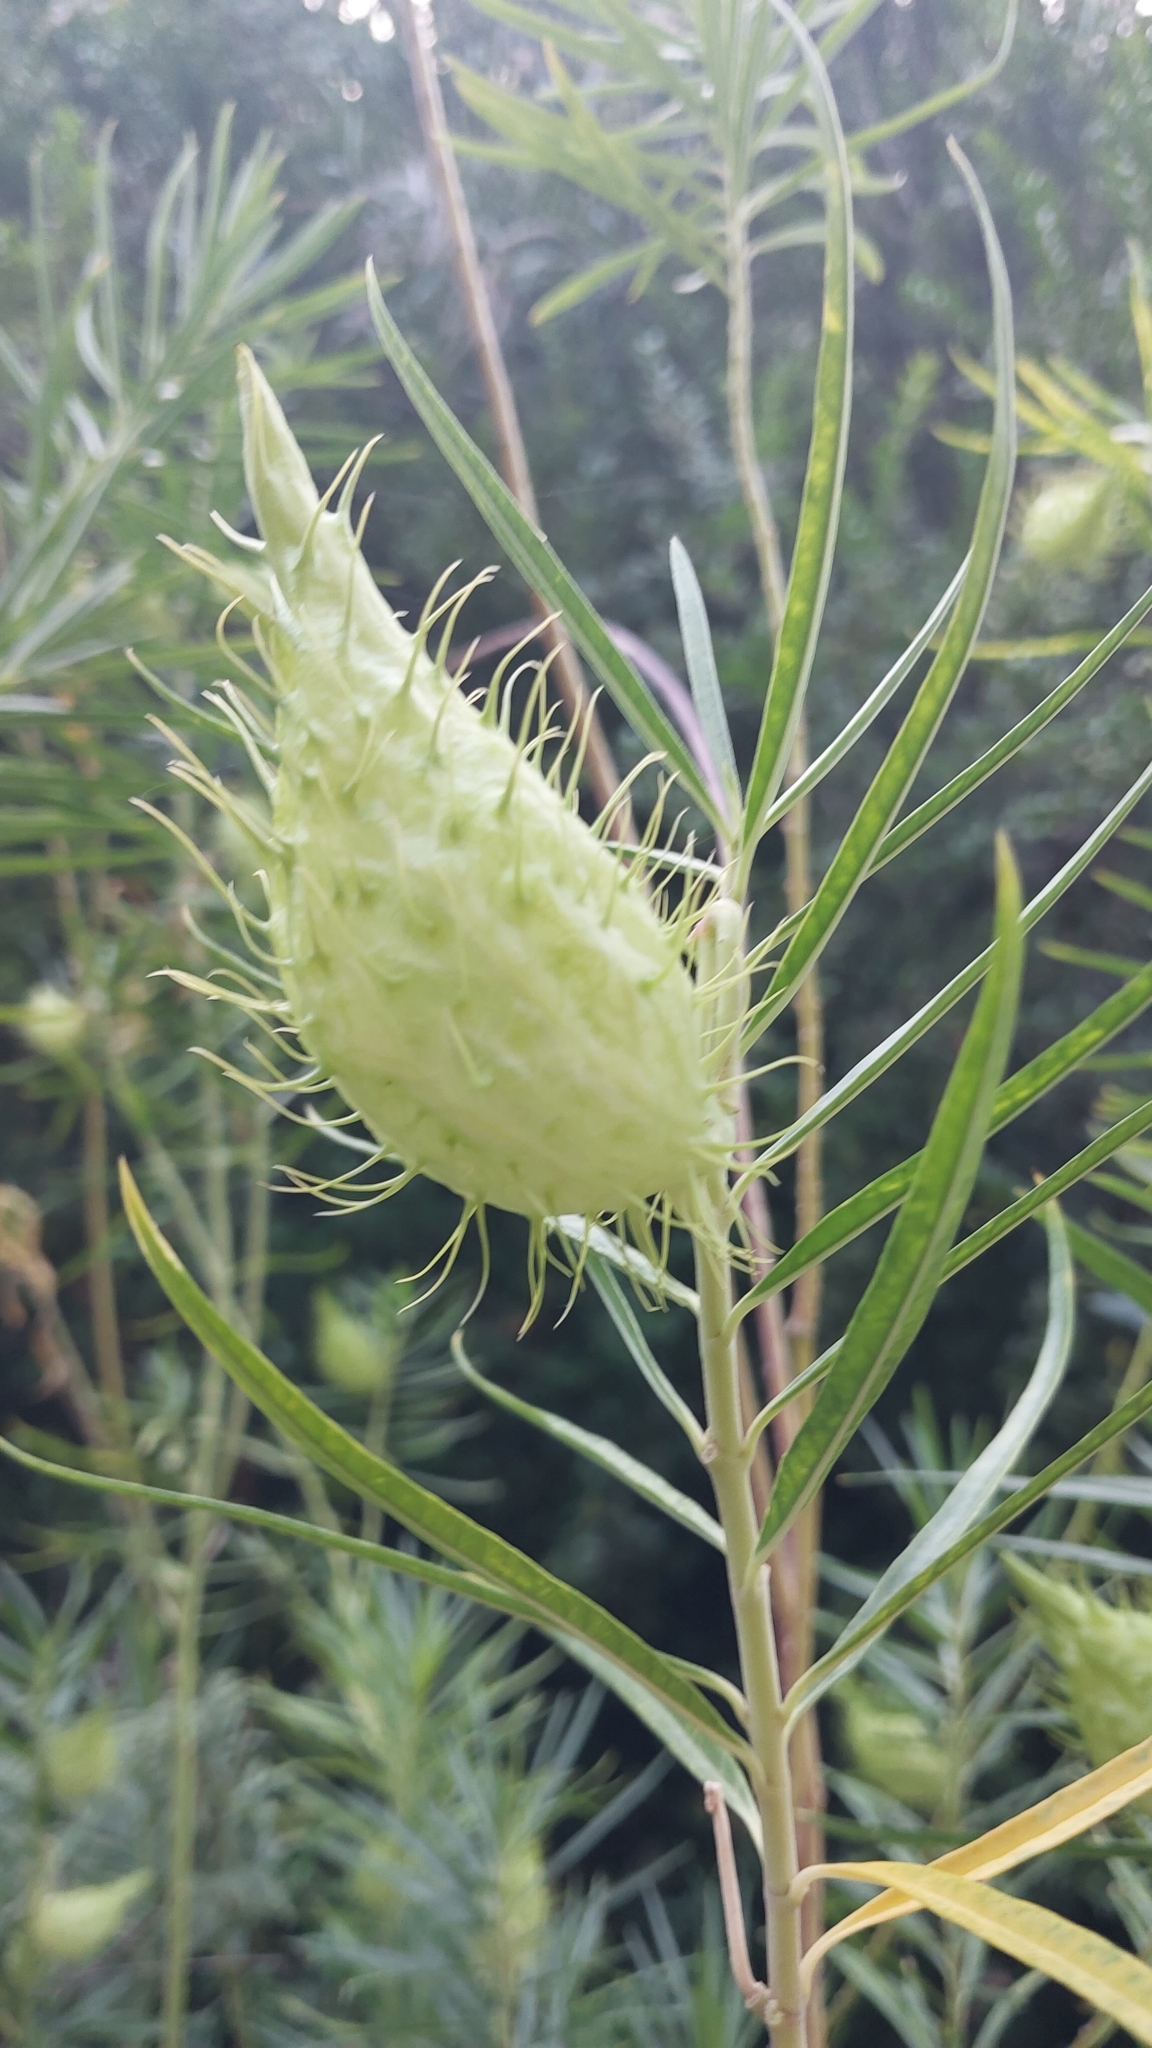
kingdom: Plantae
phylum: Tracheophyta
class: Magnoliopsida
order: Gentianales
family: Apocynaceae
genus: Gomphocarpus
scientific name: Gomphocarpus fruticosus
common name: Milkweed
